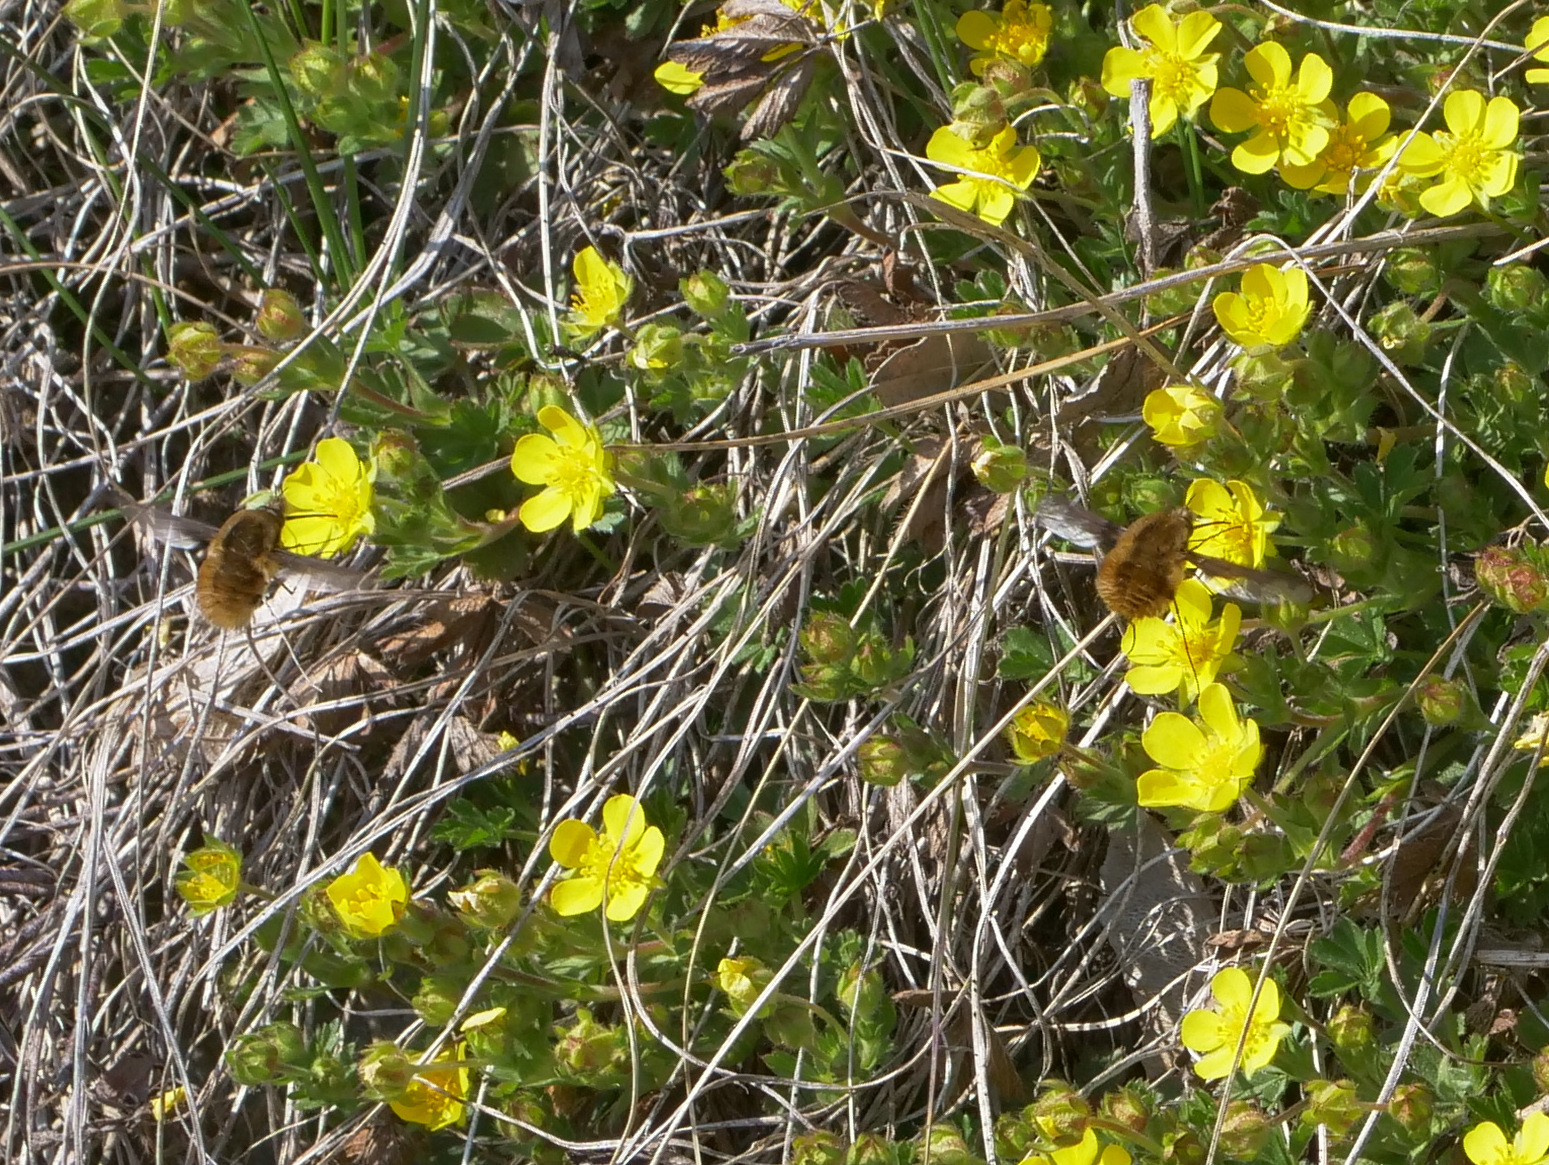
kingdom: Animalia
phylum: Arthropoda
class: Insecta
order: Diptera
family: Bombyliidae
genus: Bombylius
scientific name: Bombylius major
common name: Bee fly
